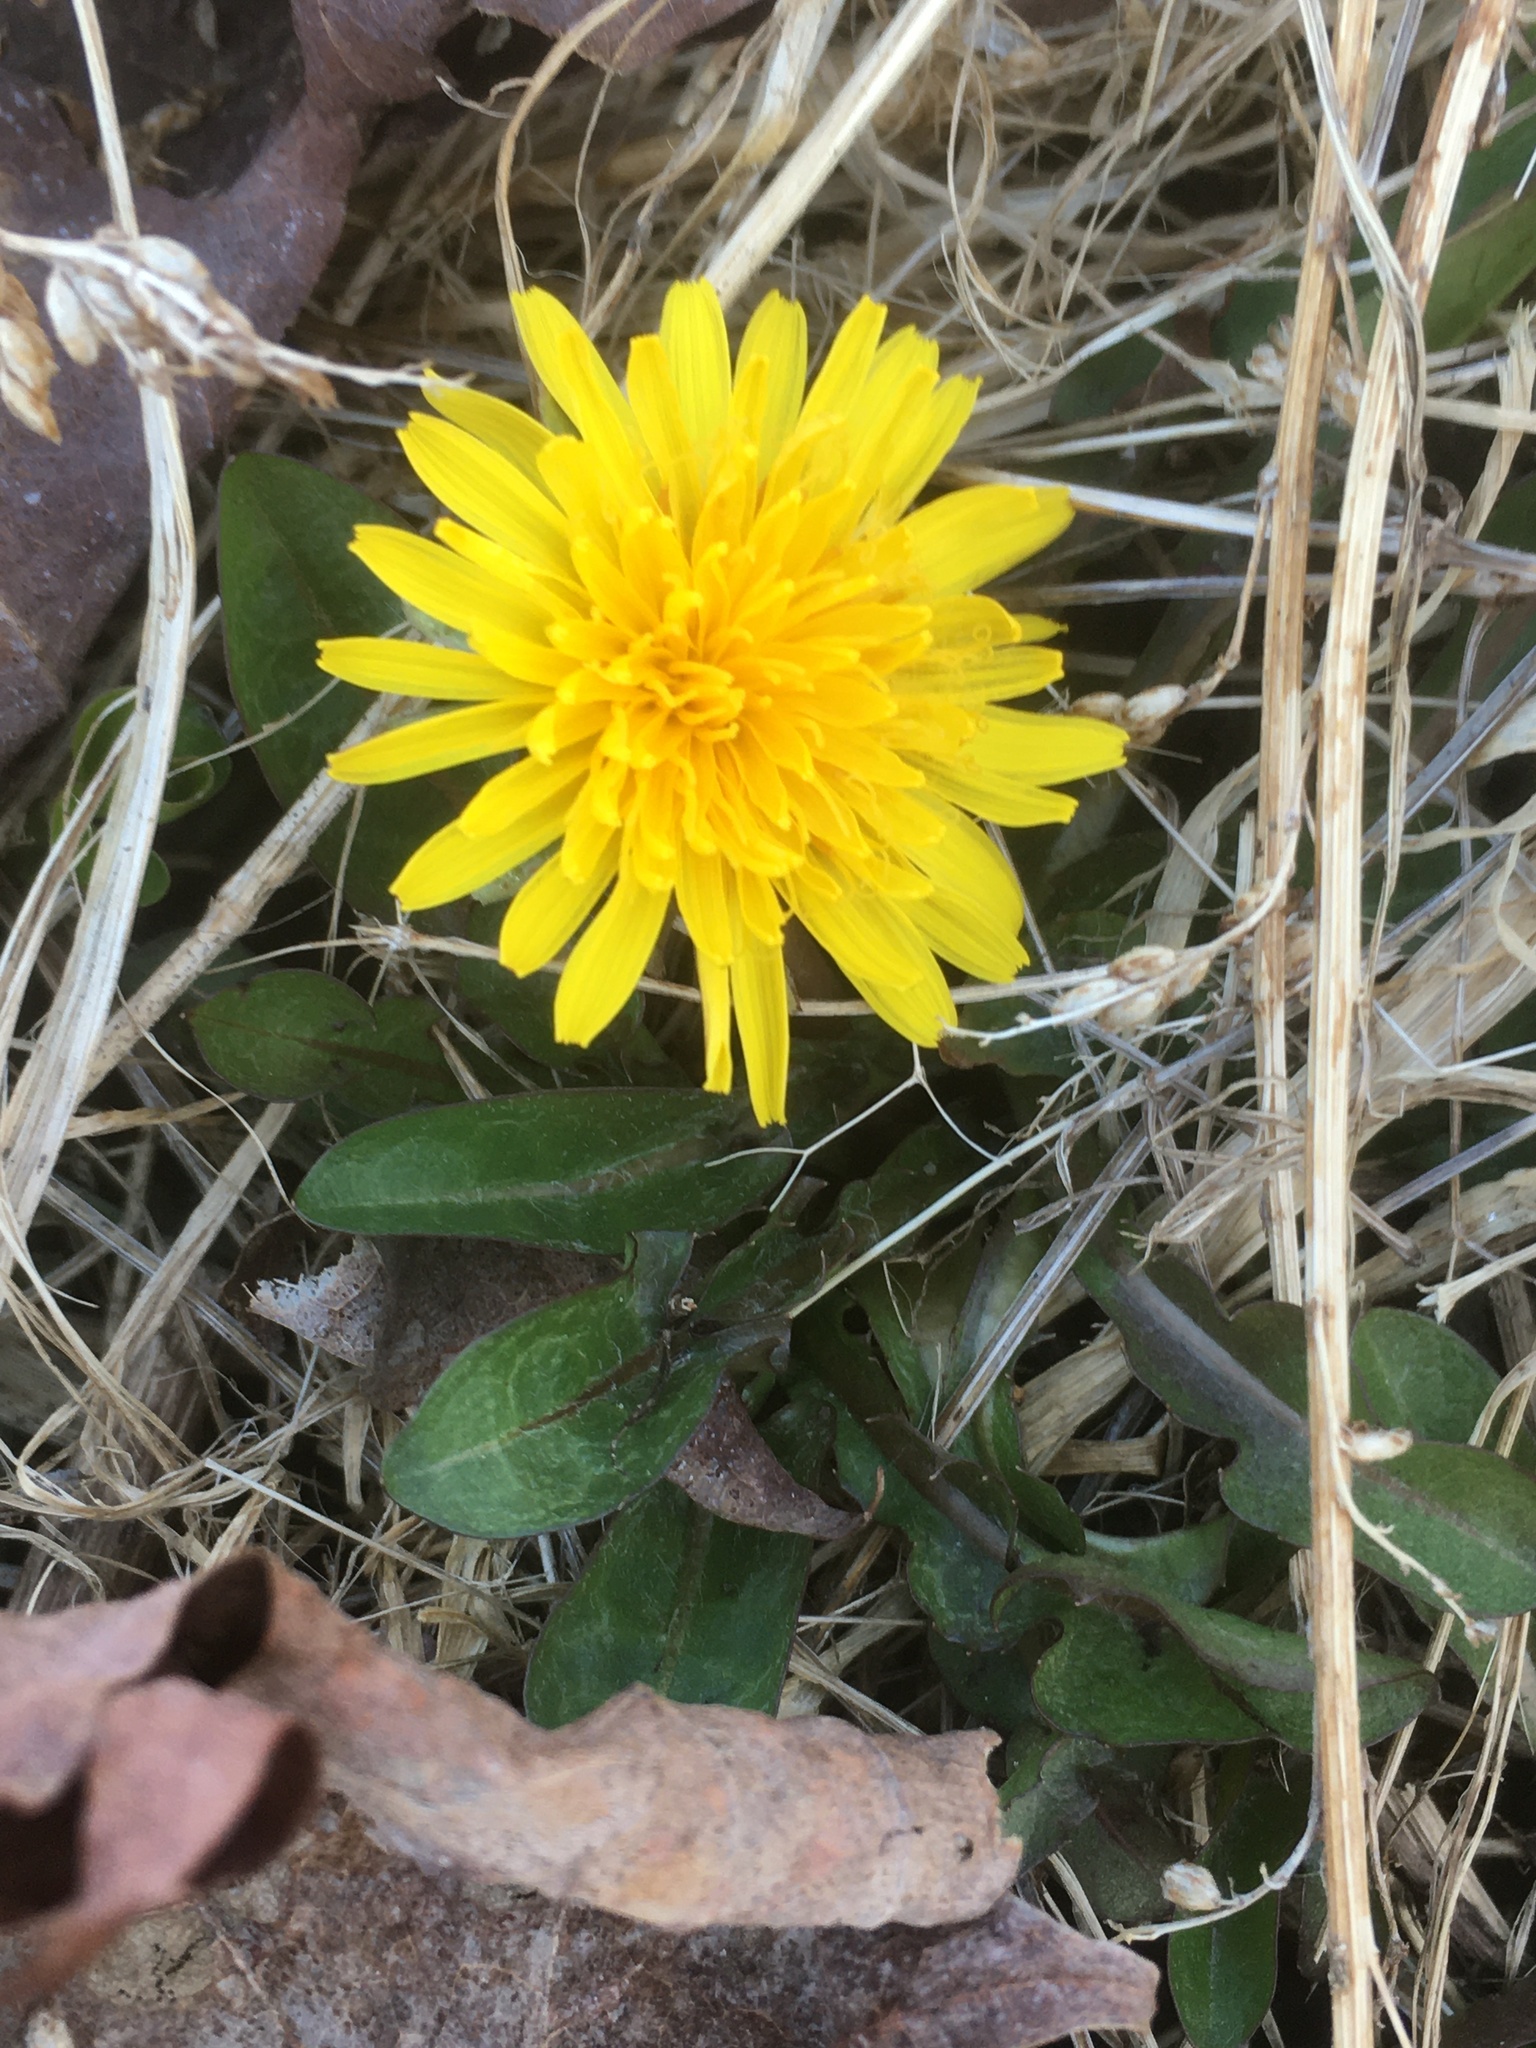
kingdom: Plantae
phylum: Tracheophyta
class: Magnoliopsida
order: Asterales
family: Asteraceae
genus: Taraxacum
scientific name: Taraxacum
